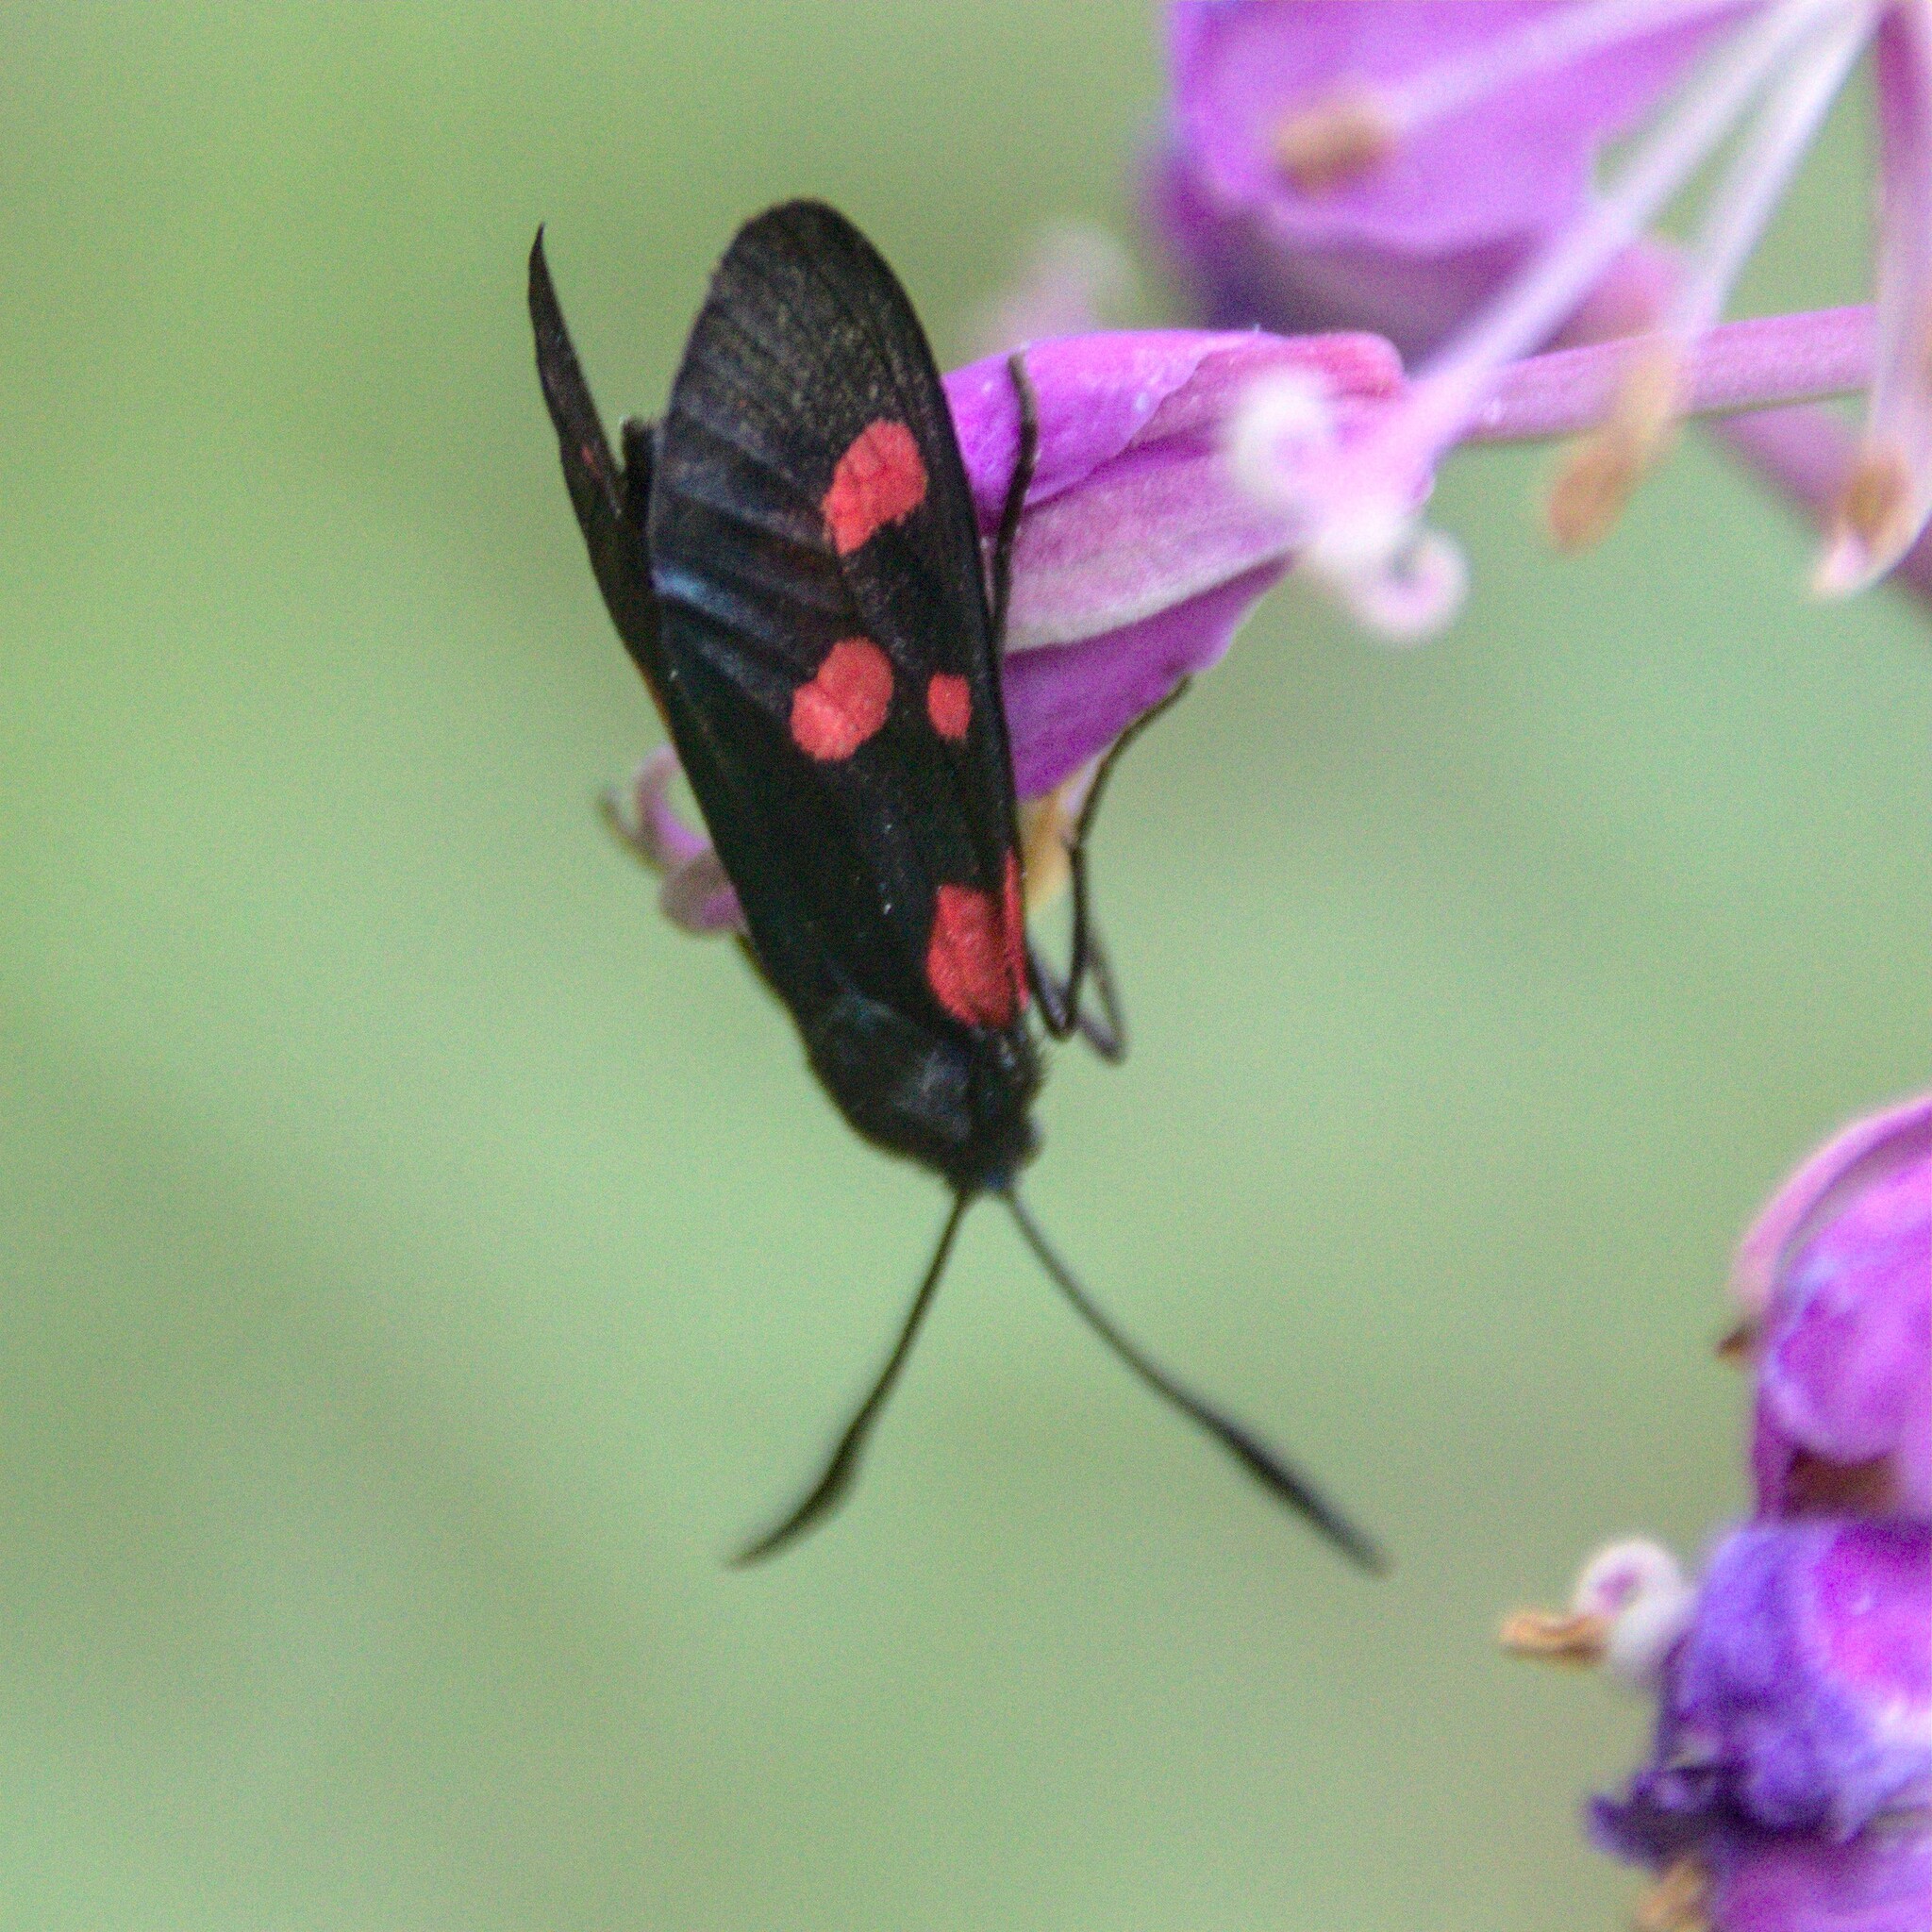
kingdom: Animalia
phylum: Arthropoda
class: Insecta
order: Lepidoptera
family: Zygaenidae
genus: Zygaena
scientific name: Zygaena lonicerae
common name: Narrow-bordered five-spot burnet
